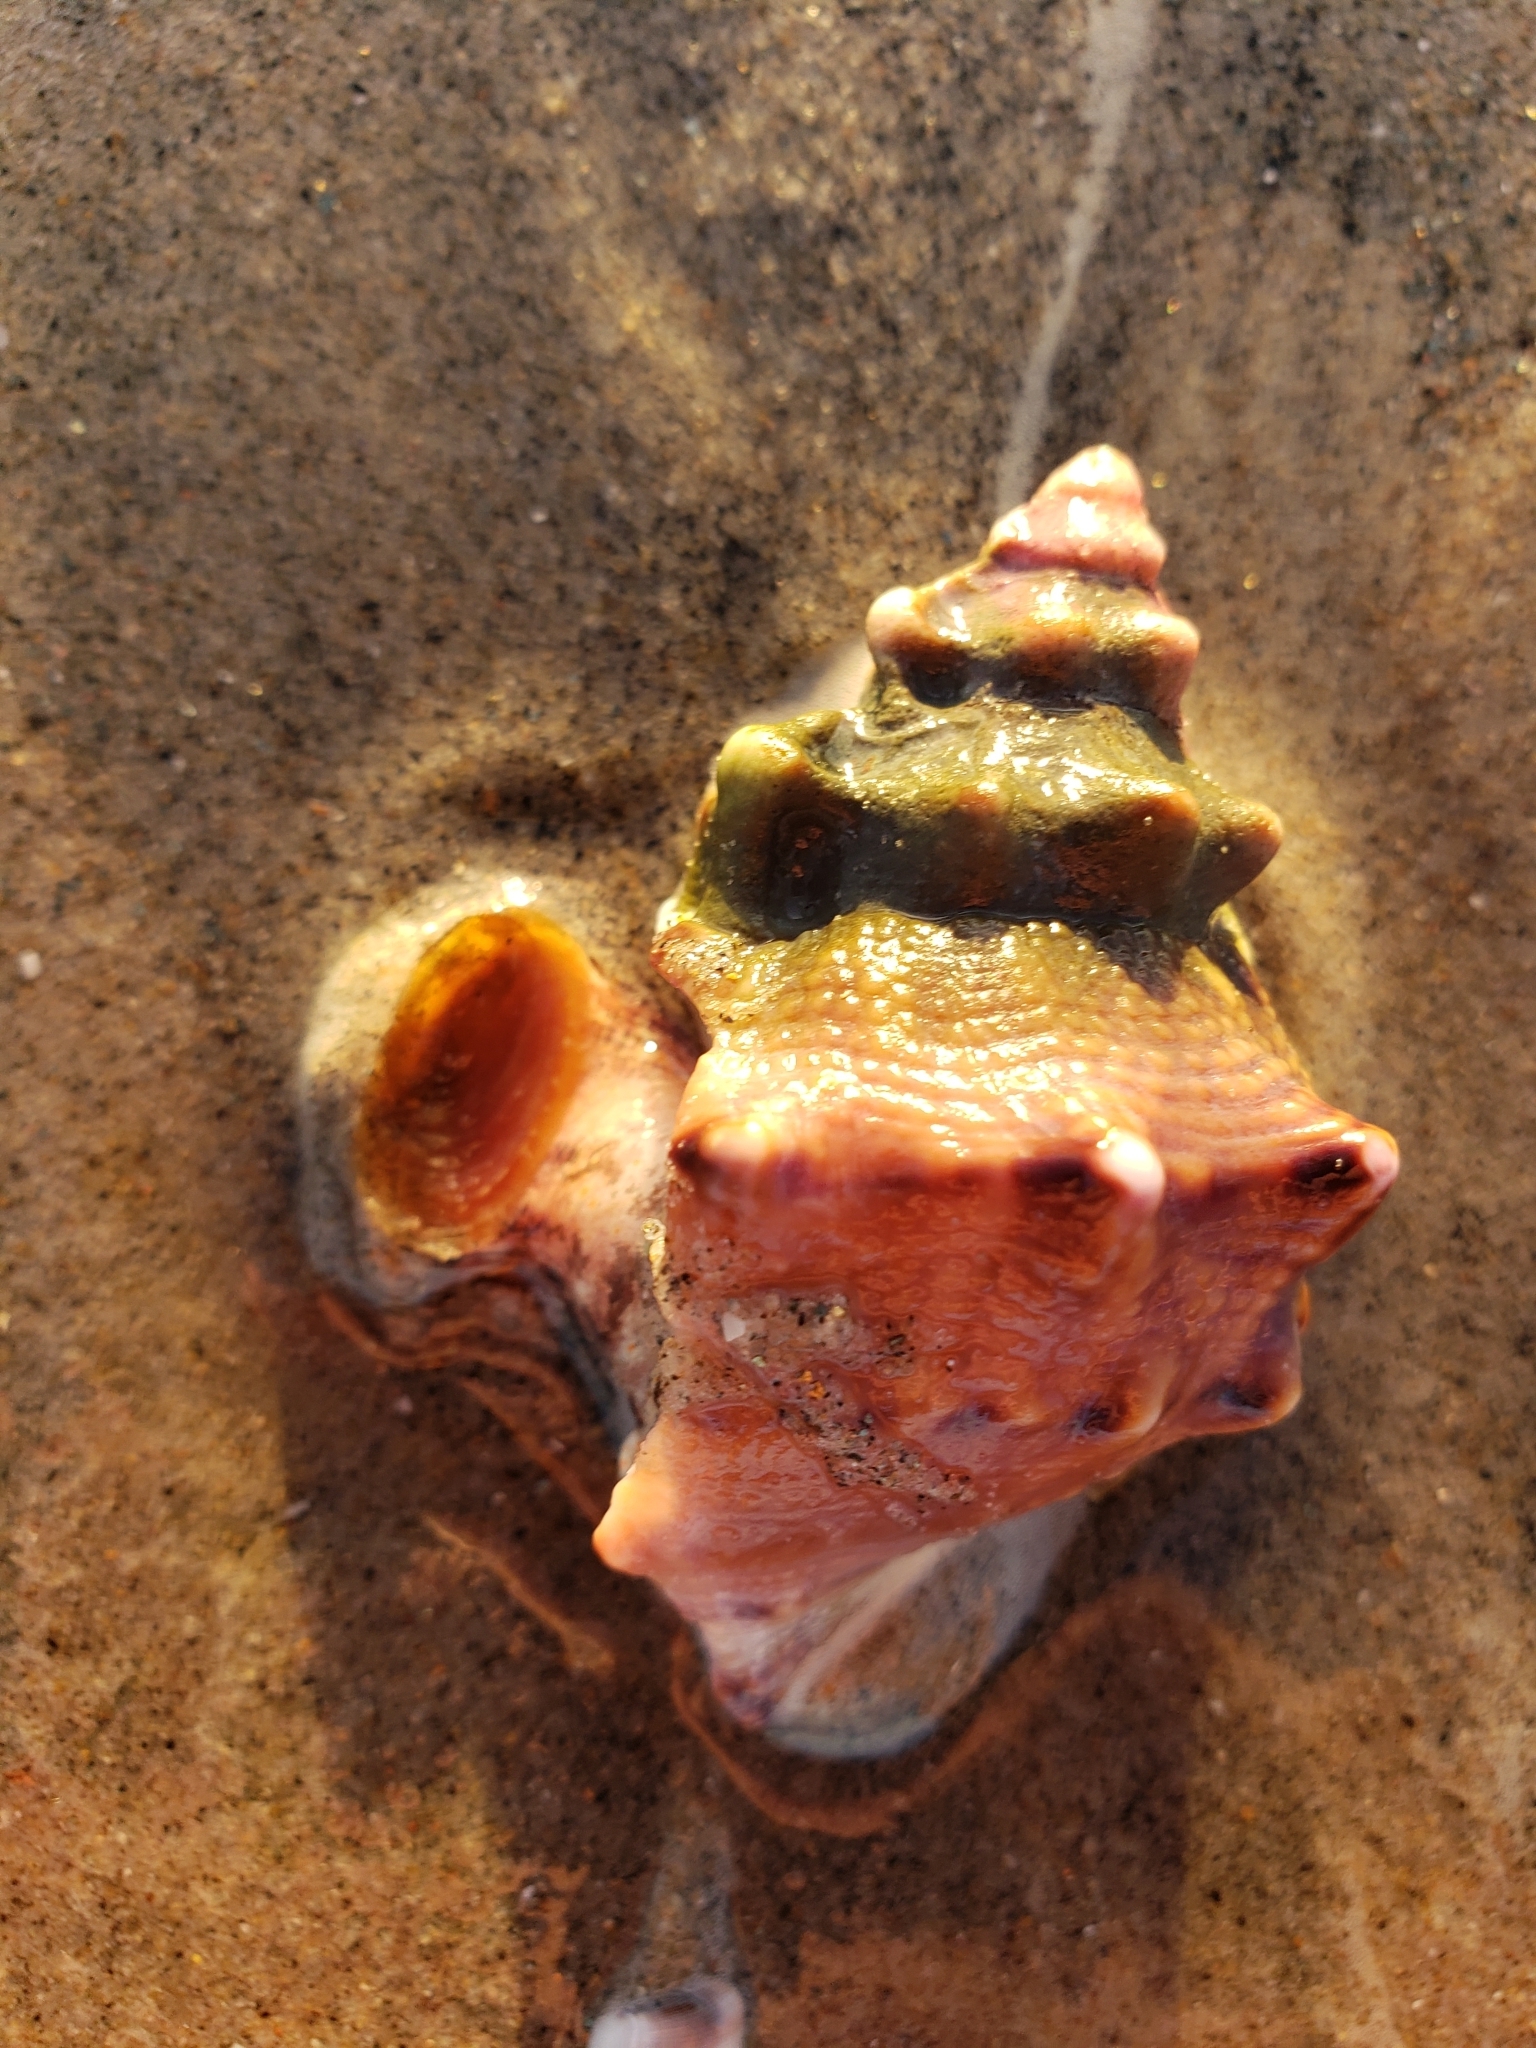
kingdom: Animalia
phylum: Mollusca
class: Gastropoda
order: Littorinimorpha
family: Bursidae
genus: Crossata
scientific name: Crossata californica
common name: California frogsnail
